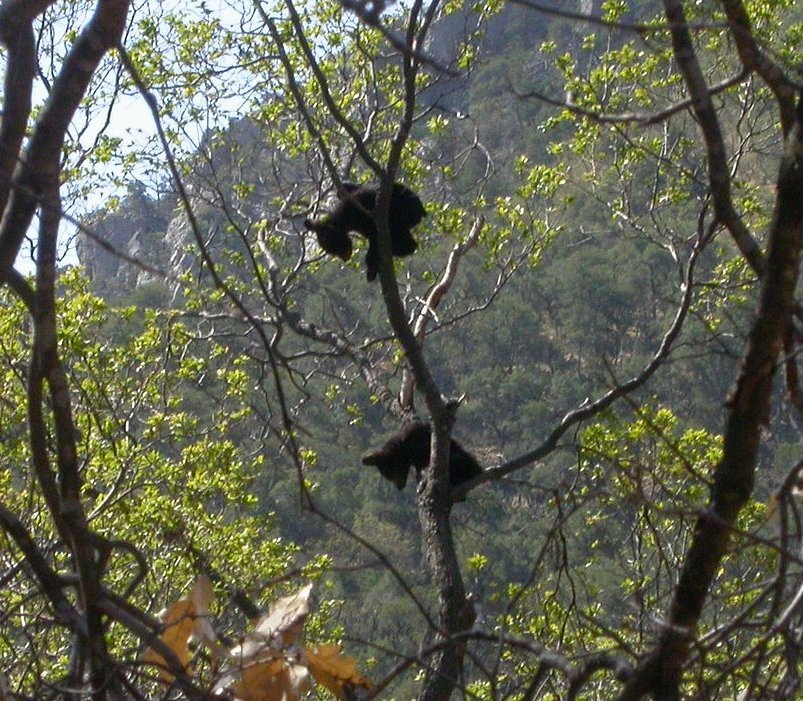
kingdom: Animalia
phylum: Chordata
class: Mammalia
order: Carnivora
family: Ursidae
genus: Ursus
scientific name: Ursus americanus
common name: American black bear
